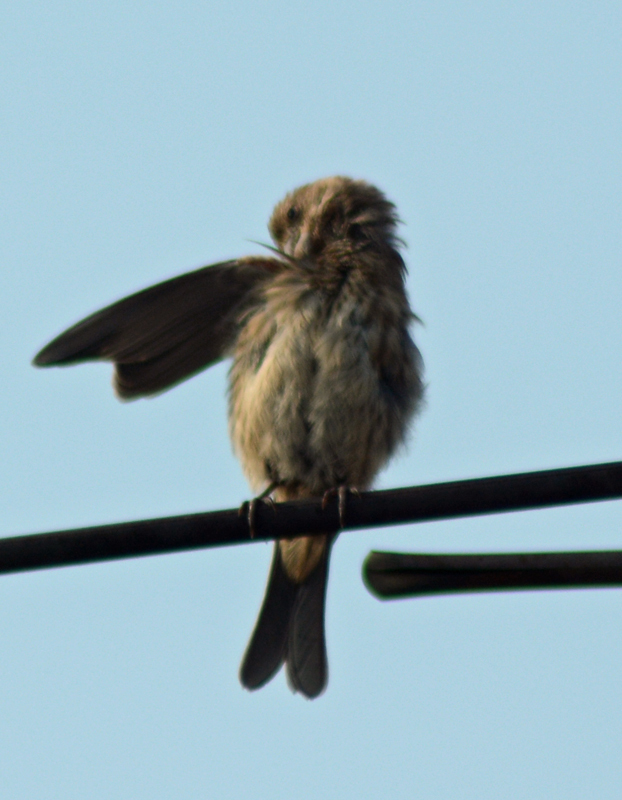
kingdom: Animalia
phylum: Chordata
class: Aves
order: Passeriformes
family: Fringillidae
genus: Haemorhous
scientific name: Haemorhous mexicanus
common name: House finch
